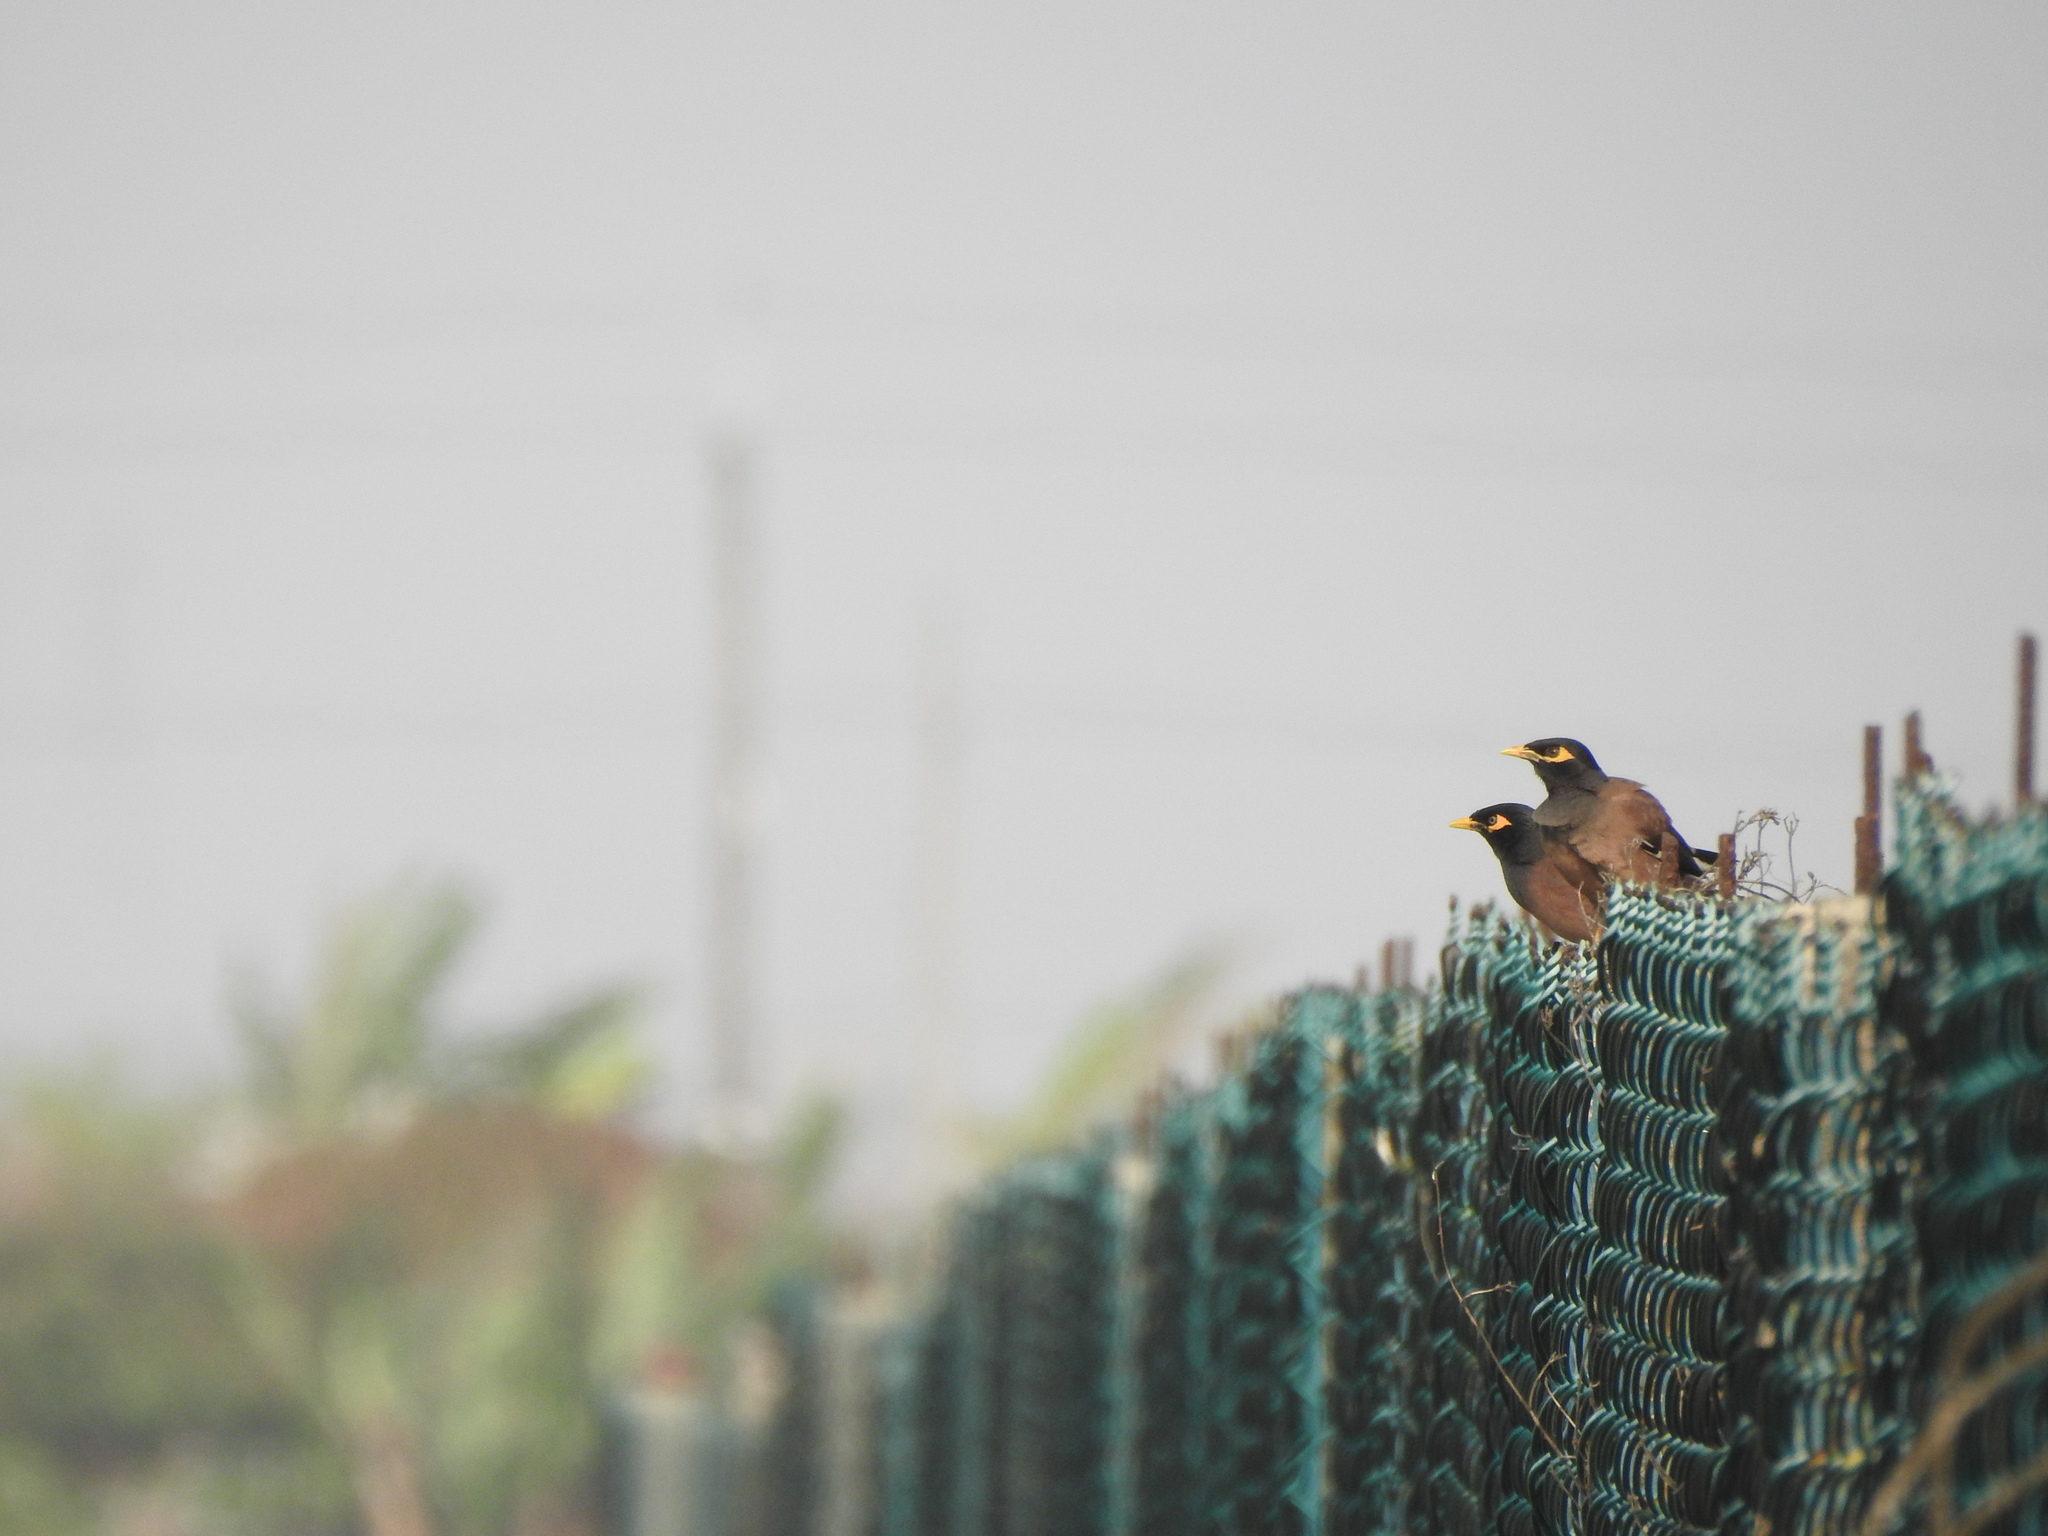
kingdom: Animalia
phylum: Chordata
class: Aves
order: Passeriformes
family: Sturnidae
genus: Acridotheres
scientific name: Acridotheres tristis
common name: Common myna
